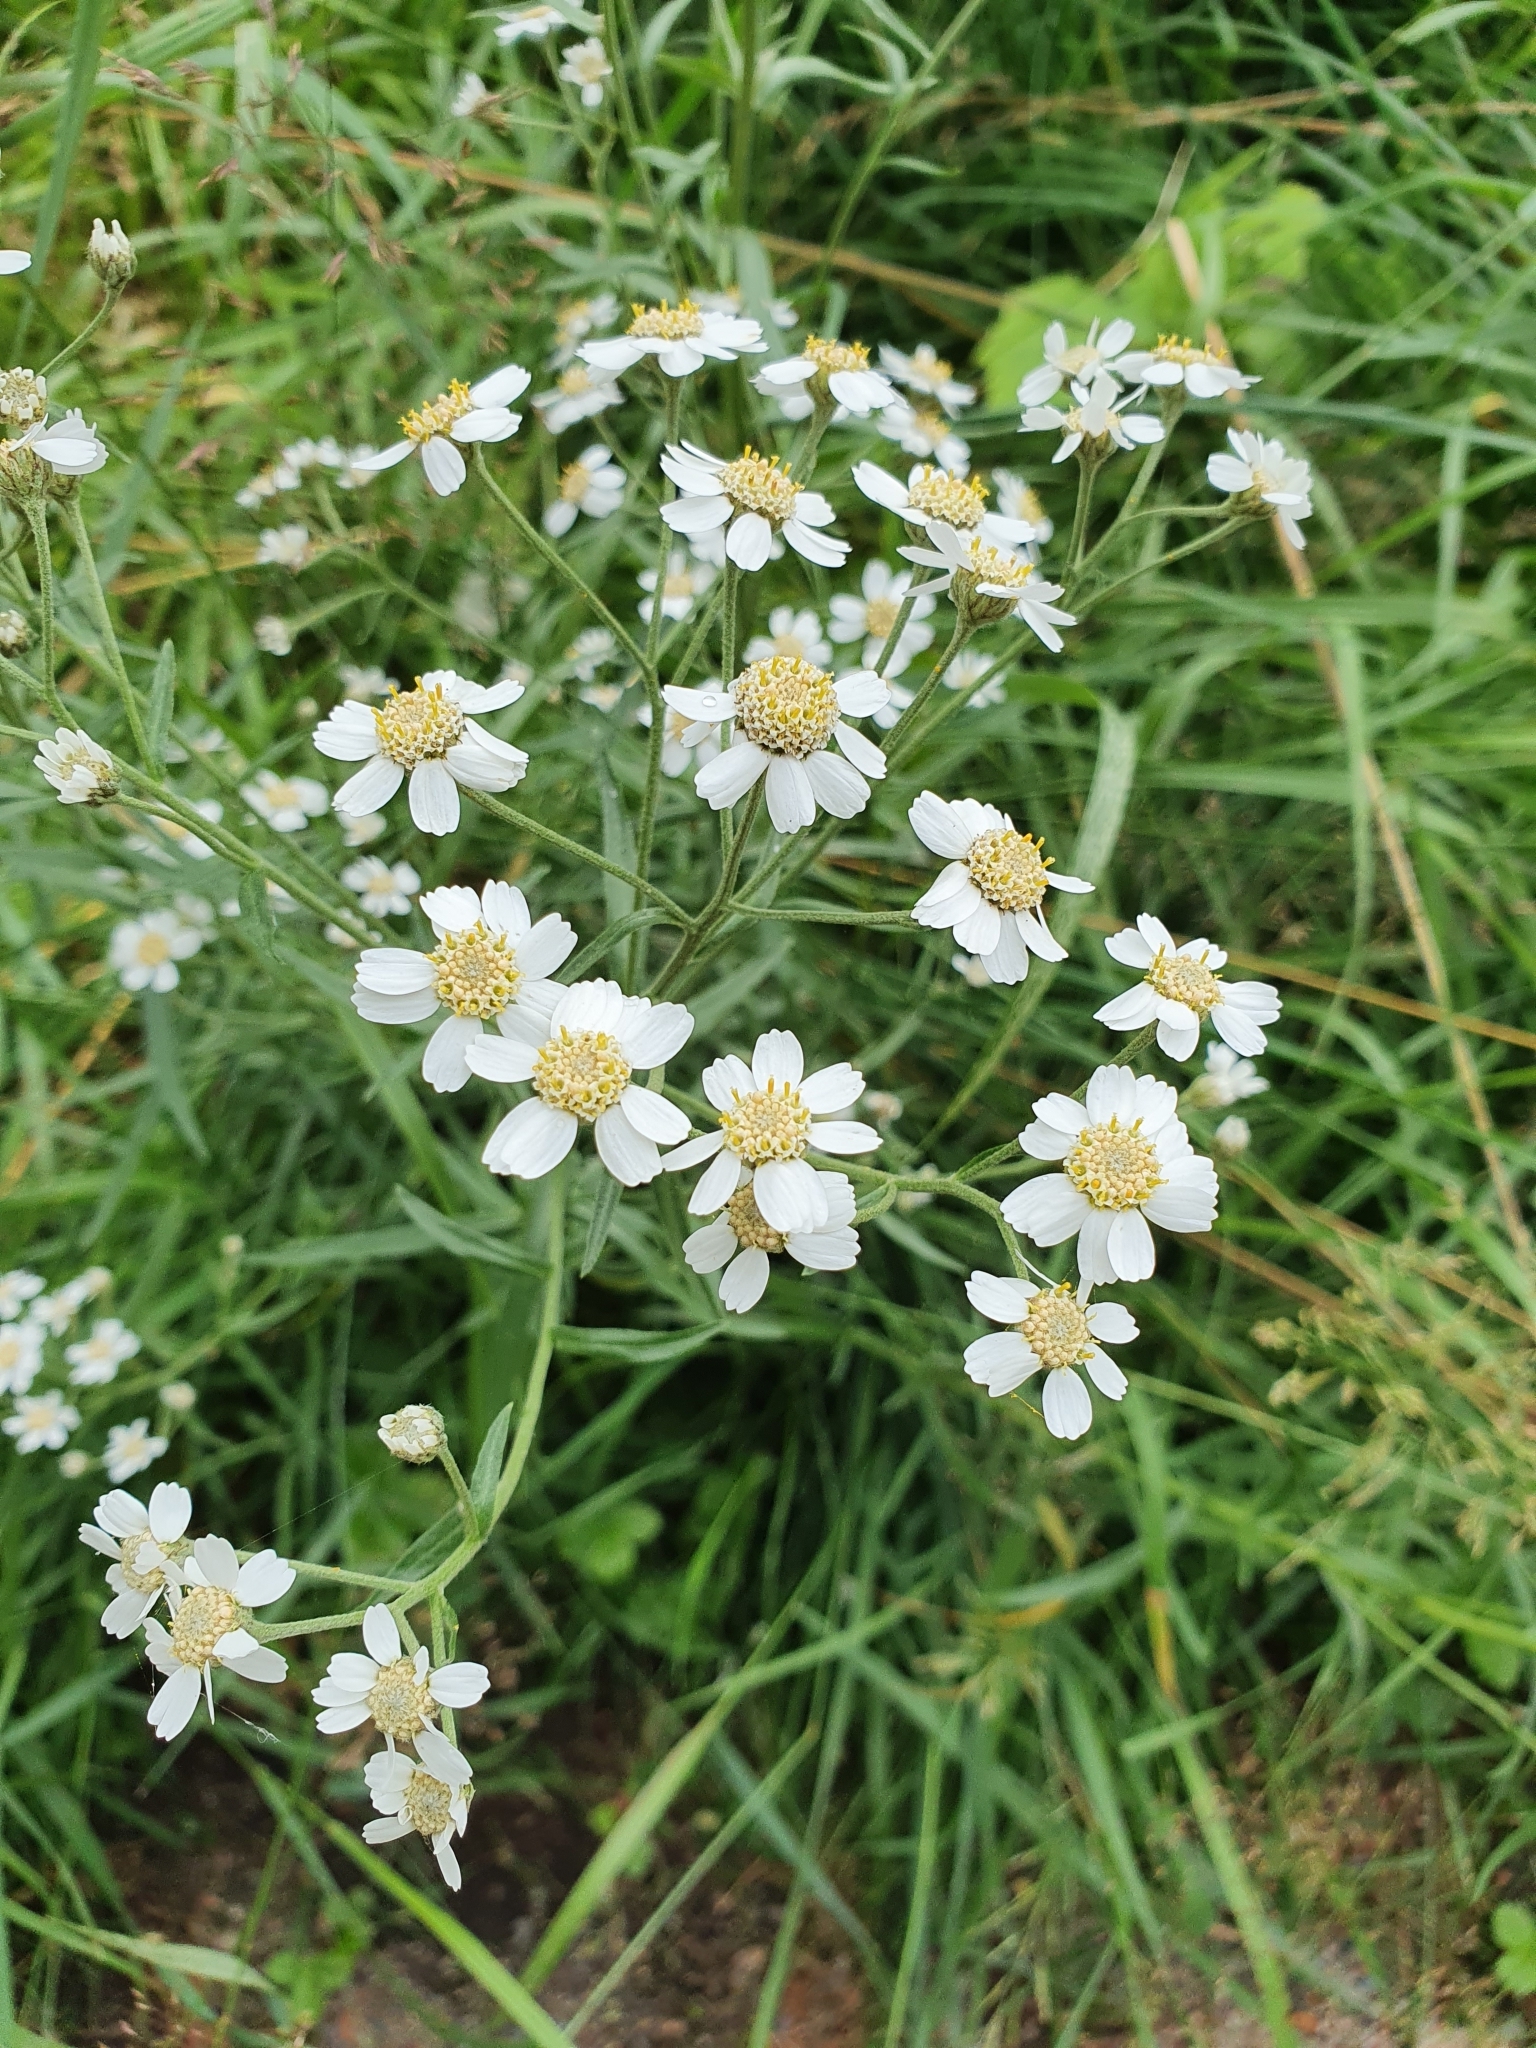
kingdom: Plantae
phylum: Tracheophyta
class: Magnoliopsida
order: Asterales
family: Asteraceae
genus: Achillea
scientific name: Achillea ptarmica
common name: Sneezeweed
